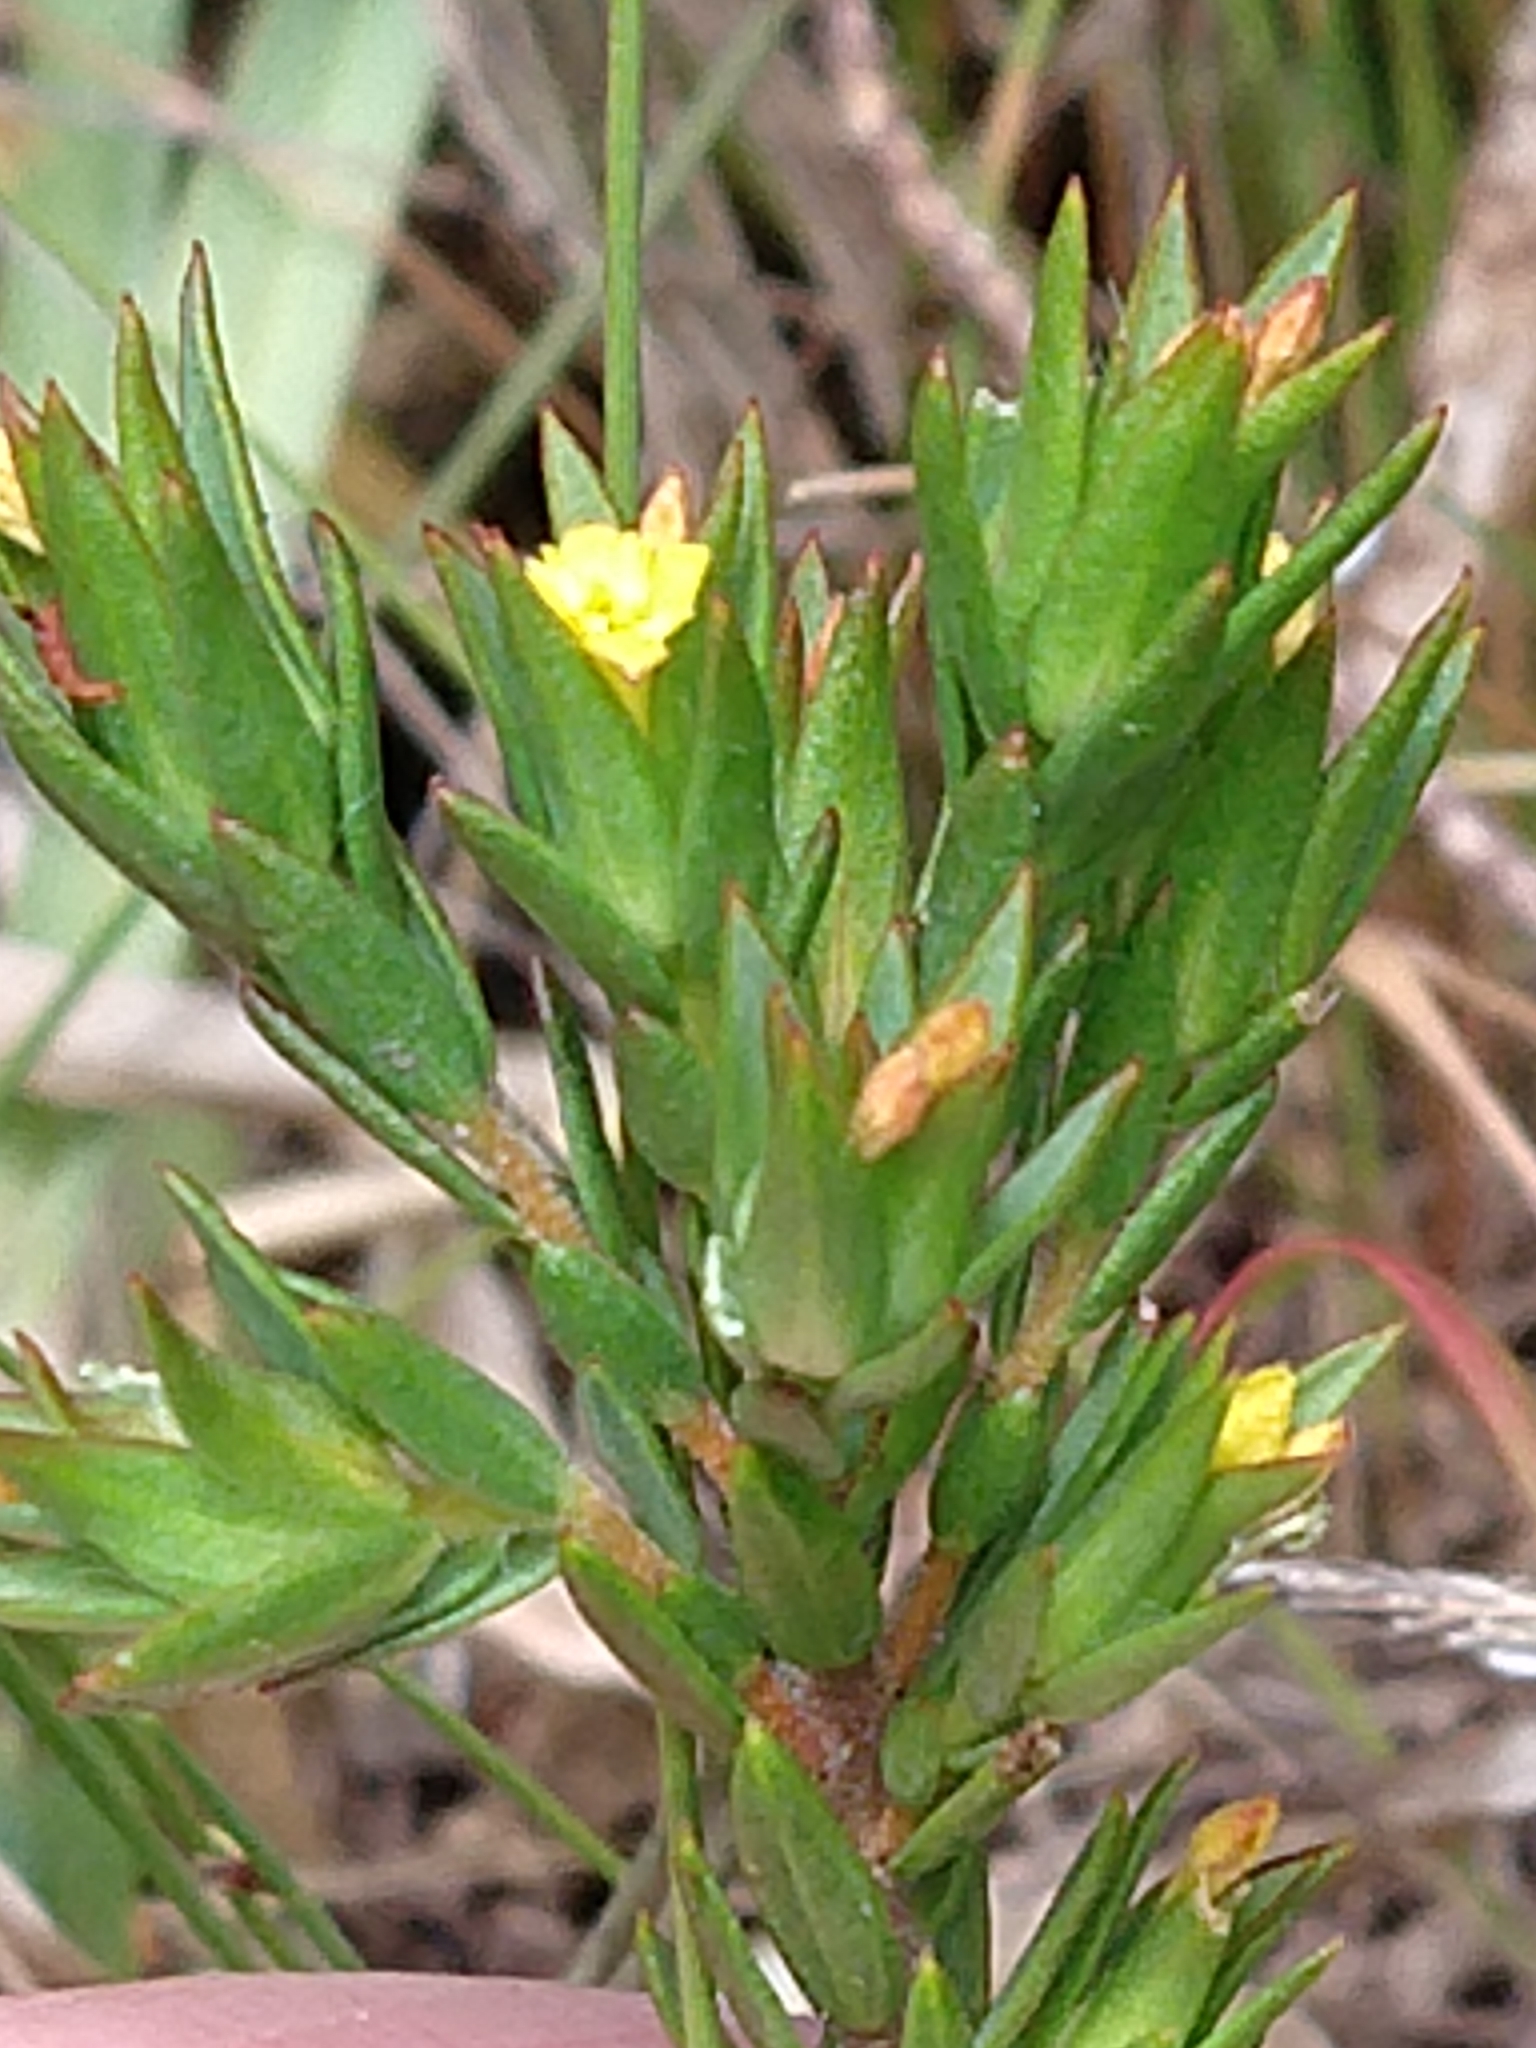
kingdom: Plantae
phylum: Tracheophyta
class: Magnoliopsida
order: Malvales
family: Thymelaeaceae
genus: Gnidia
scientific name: Gnidia juniperifolia
